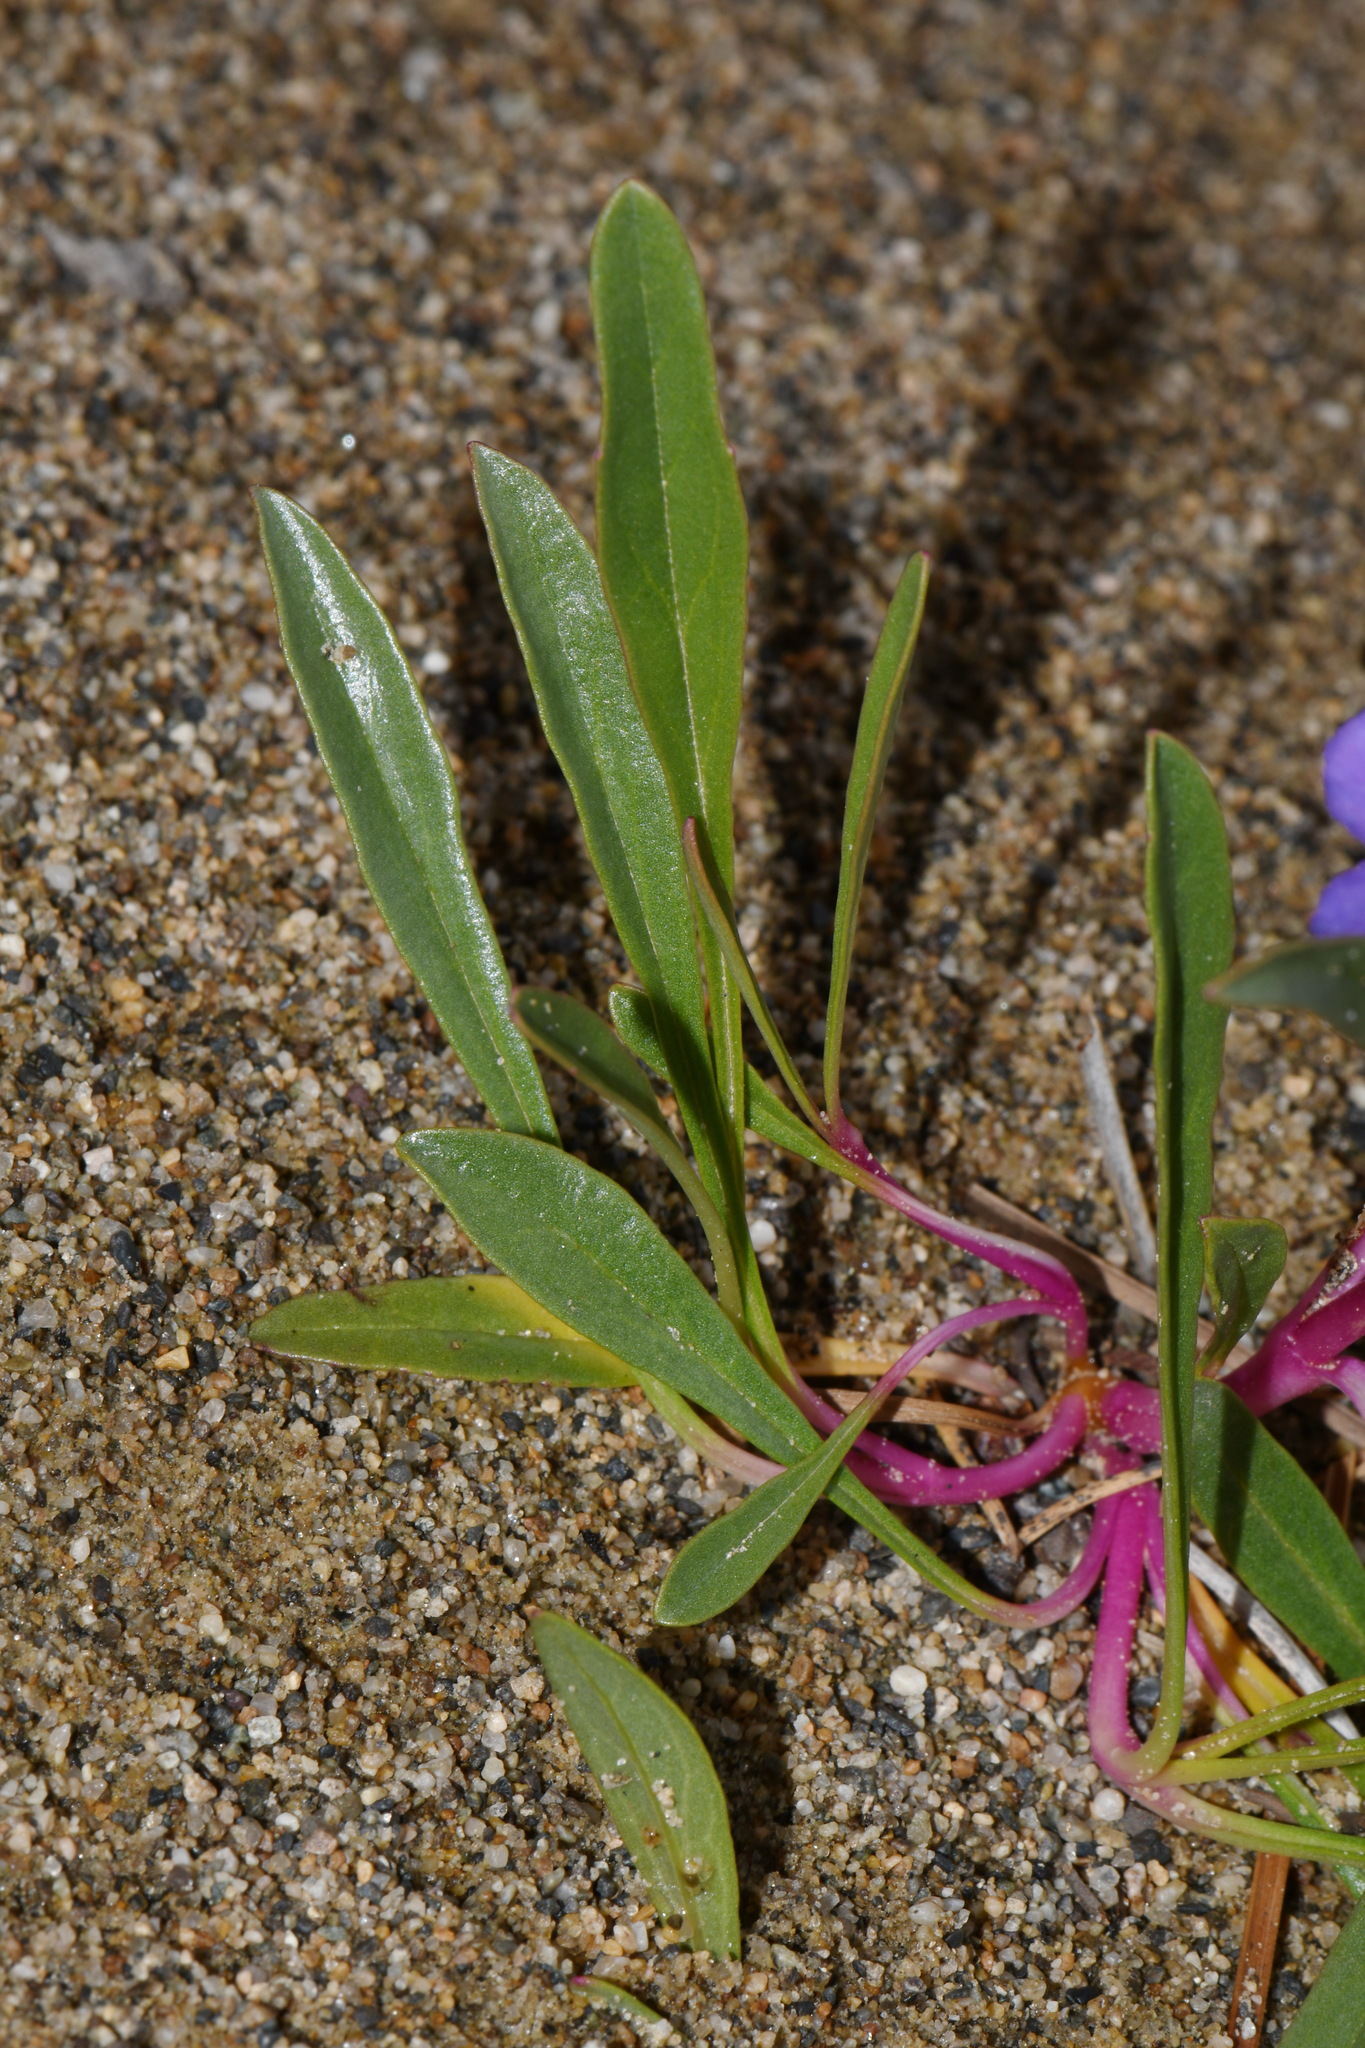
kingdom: Plantae
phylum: Tracheophyta
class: Magnoliopsida
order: Lamiales
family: Plantaginaceae
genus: Penstemon
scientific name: Penstemon gormanii
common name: Gorman's beardtongue
